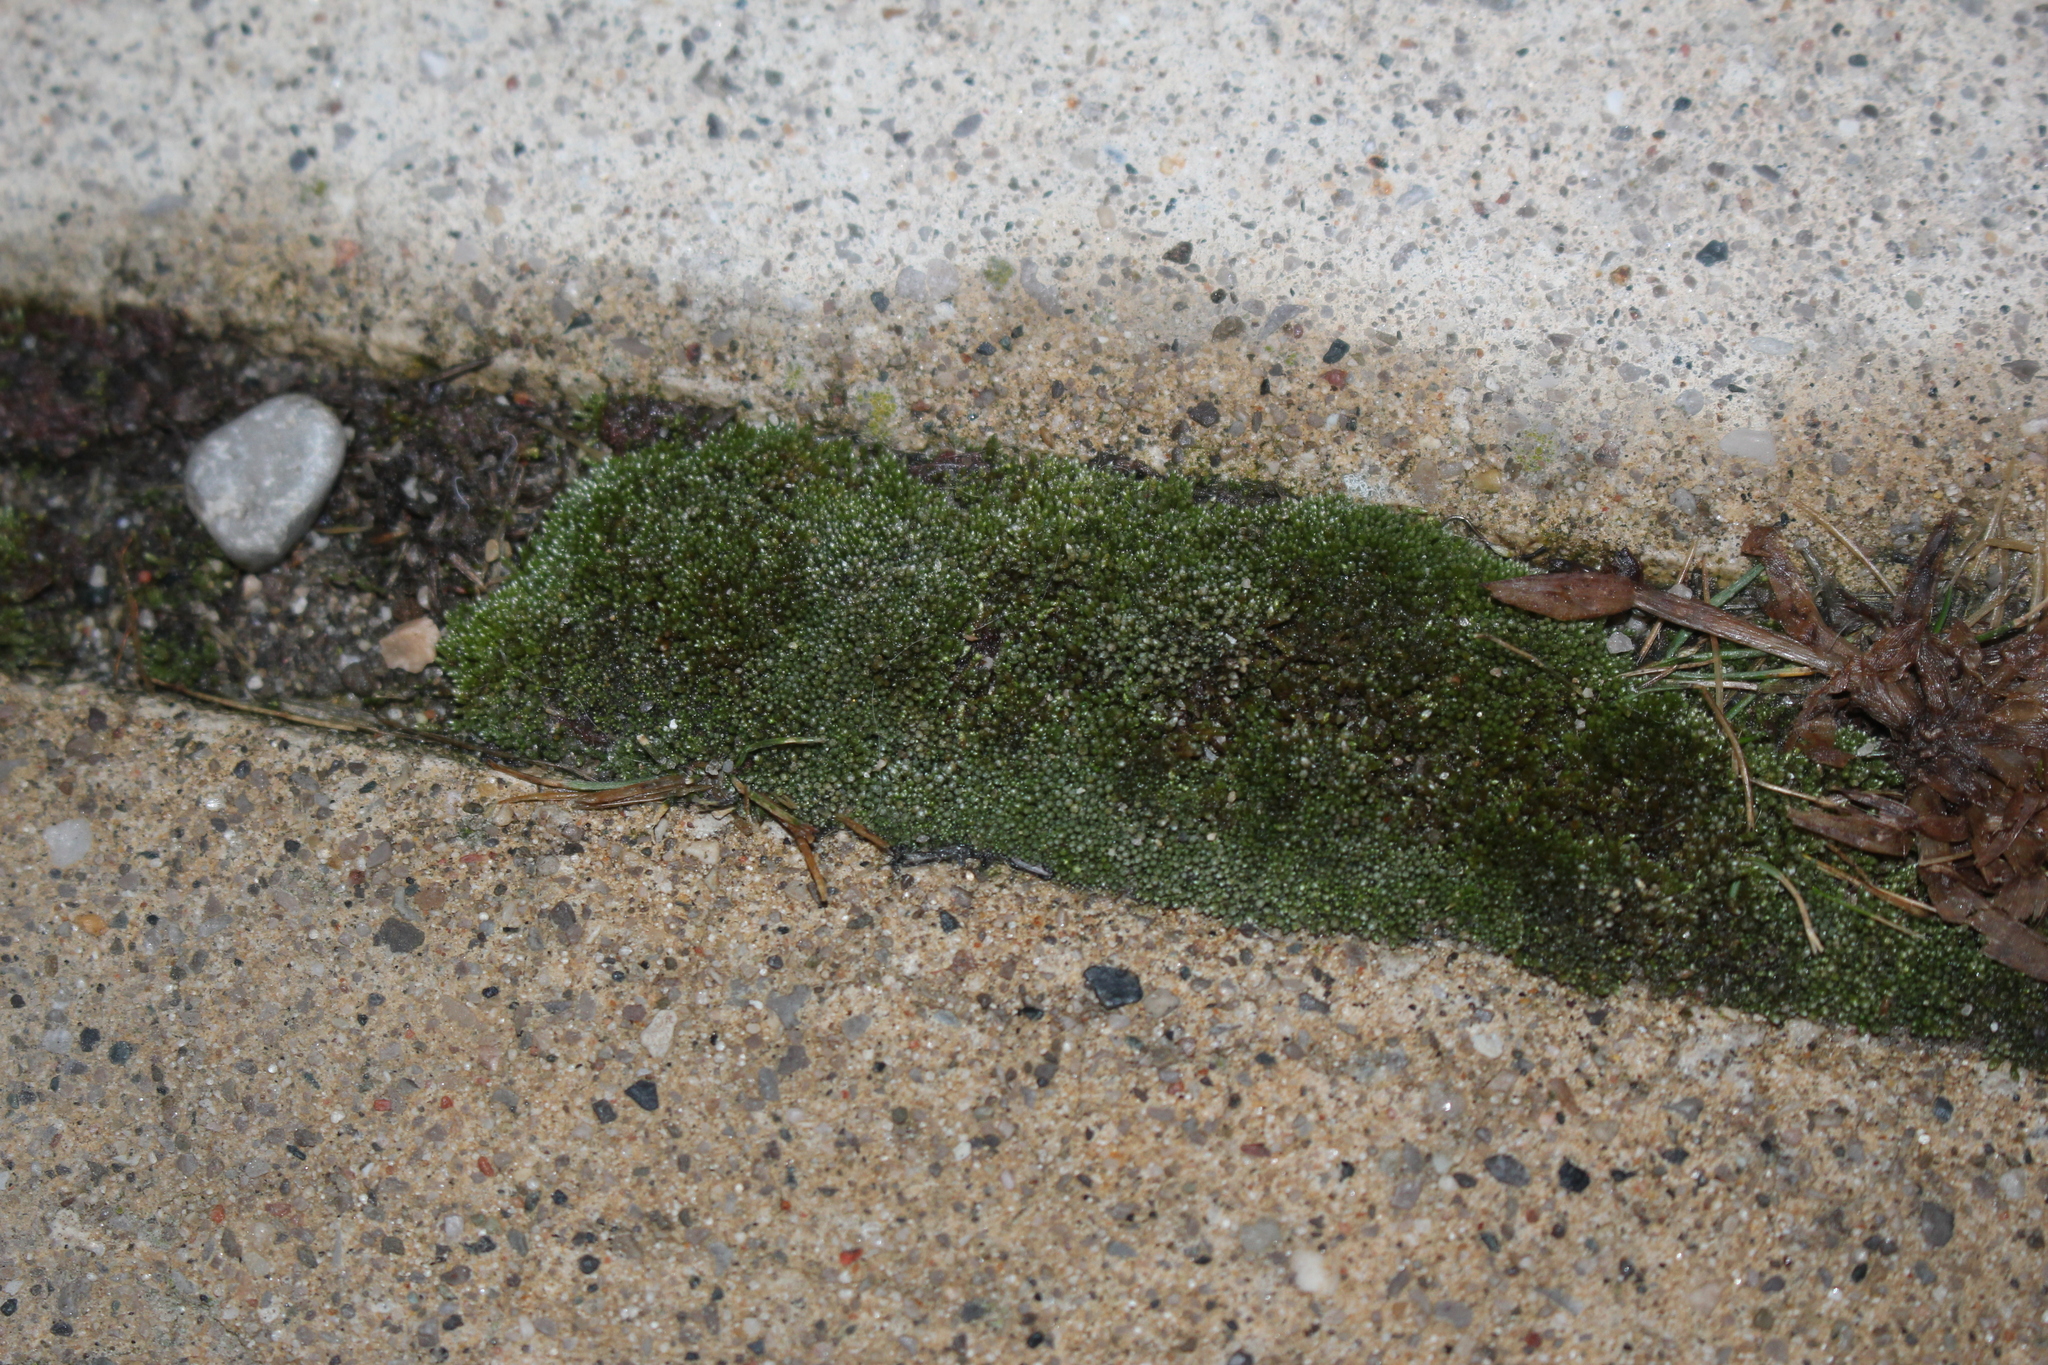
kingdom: Plantae
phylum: Bryophyta
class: Bryopsida
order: Bryales
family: Bryaceae
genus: Bryum
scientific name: Bryum argenteum
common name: Silver-moss
